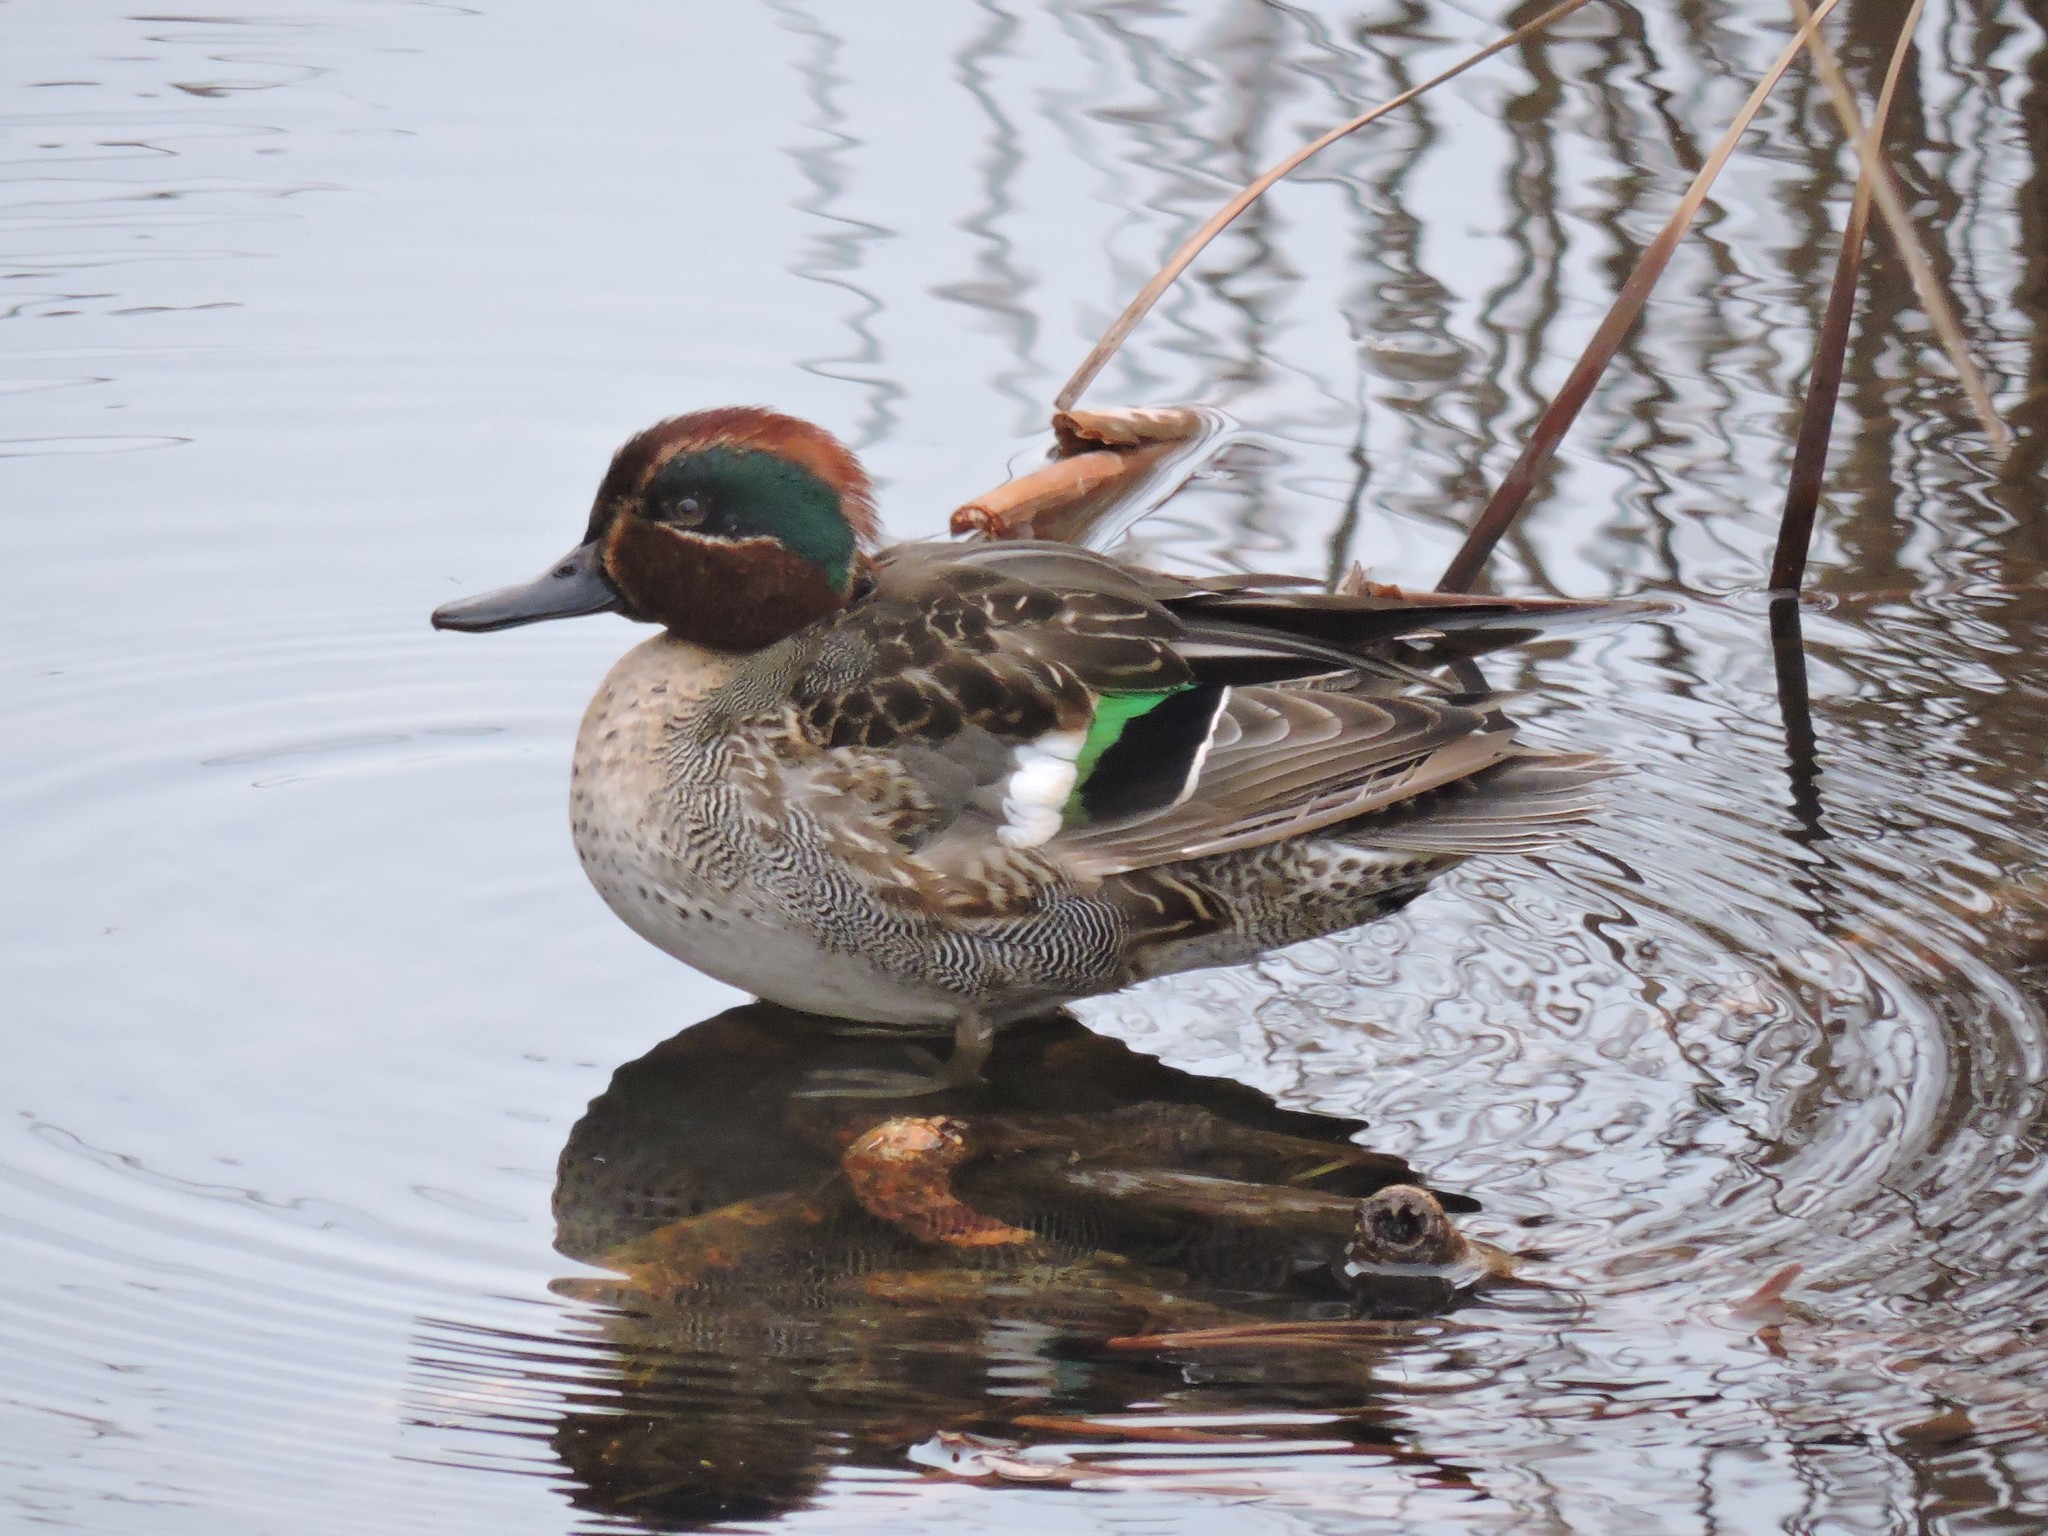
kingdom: Animalia
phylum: Chordata
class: Aves
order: Anseriformes
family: Anatidae
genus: Anas
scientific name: Anas crecca
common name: Eurasian teal
